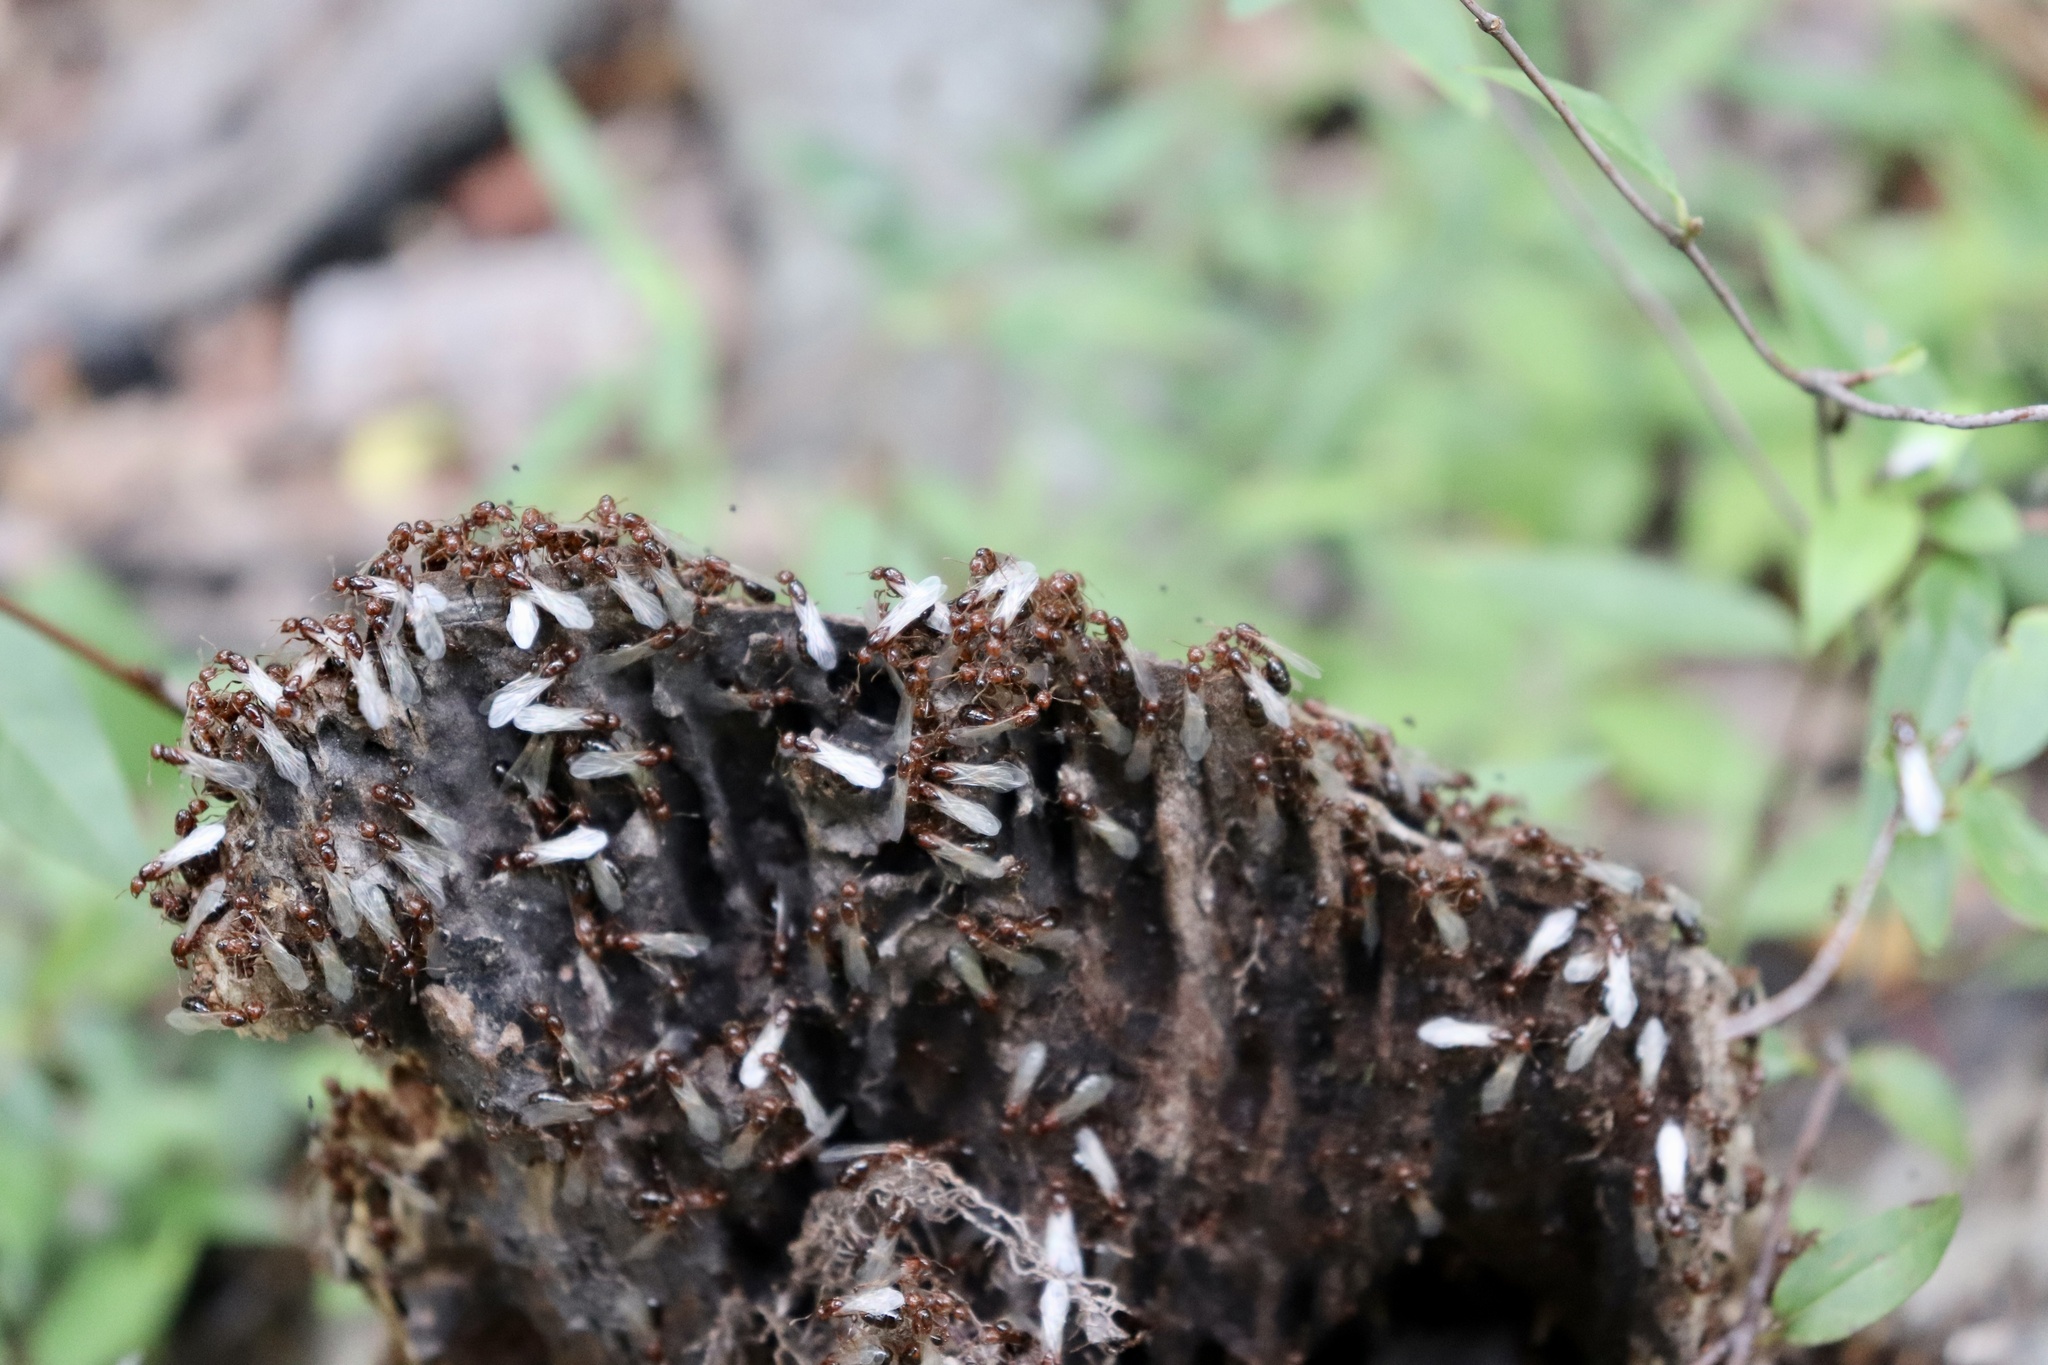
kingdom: Animalia
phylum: Arthropoda
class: Insecta
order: Hymenoptera
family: Formicidae
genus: Solenopsis
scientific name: Solenopsis invicta
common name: Red imported fire ant
